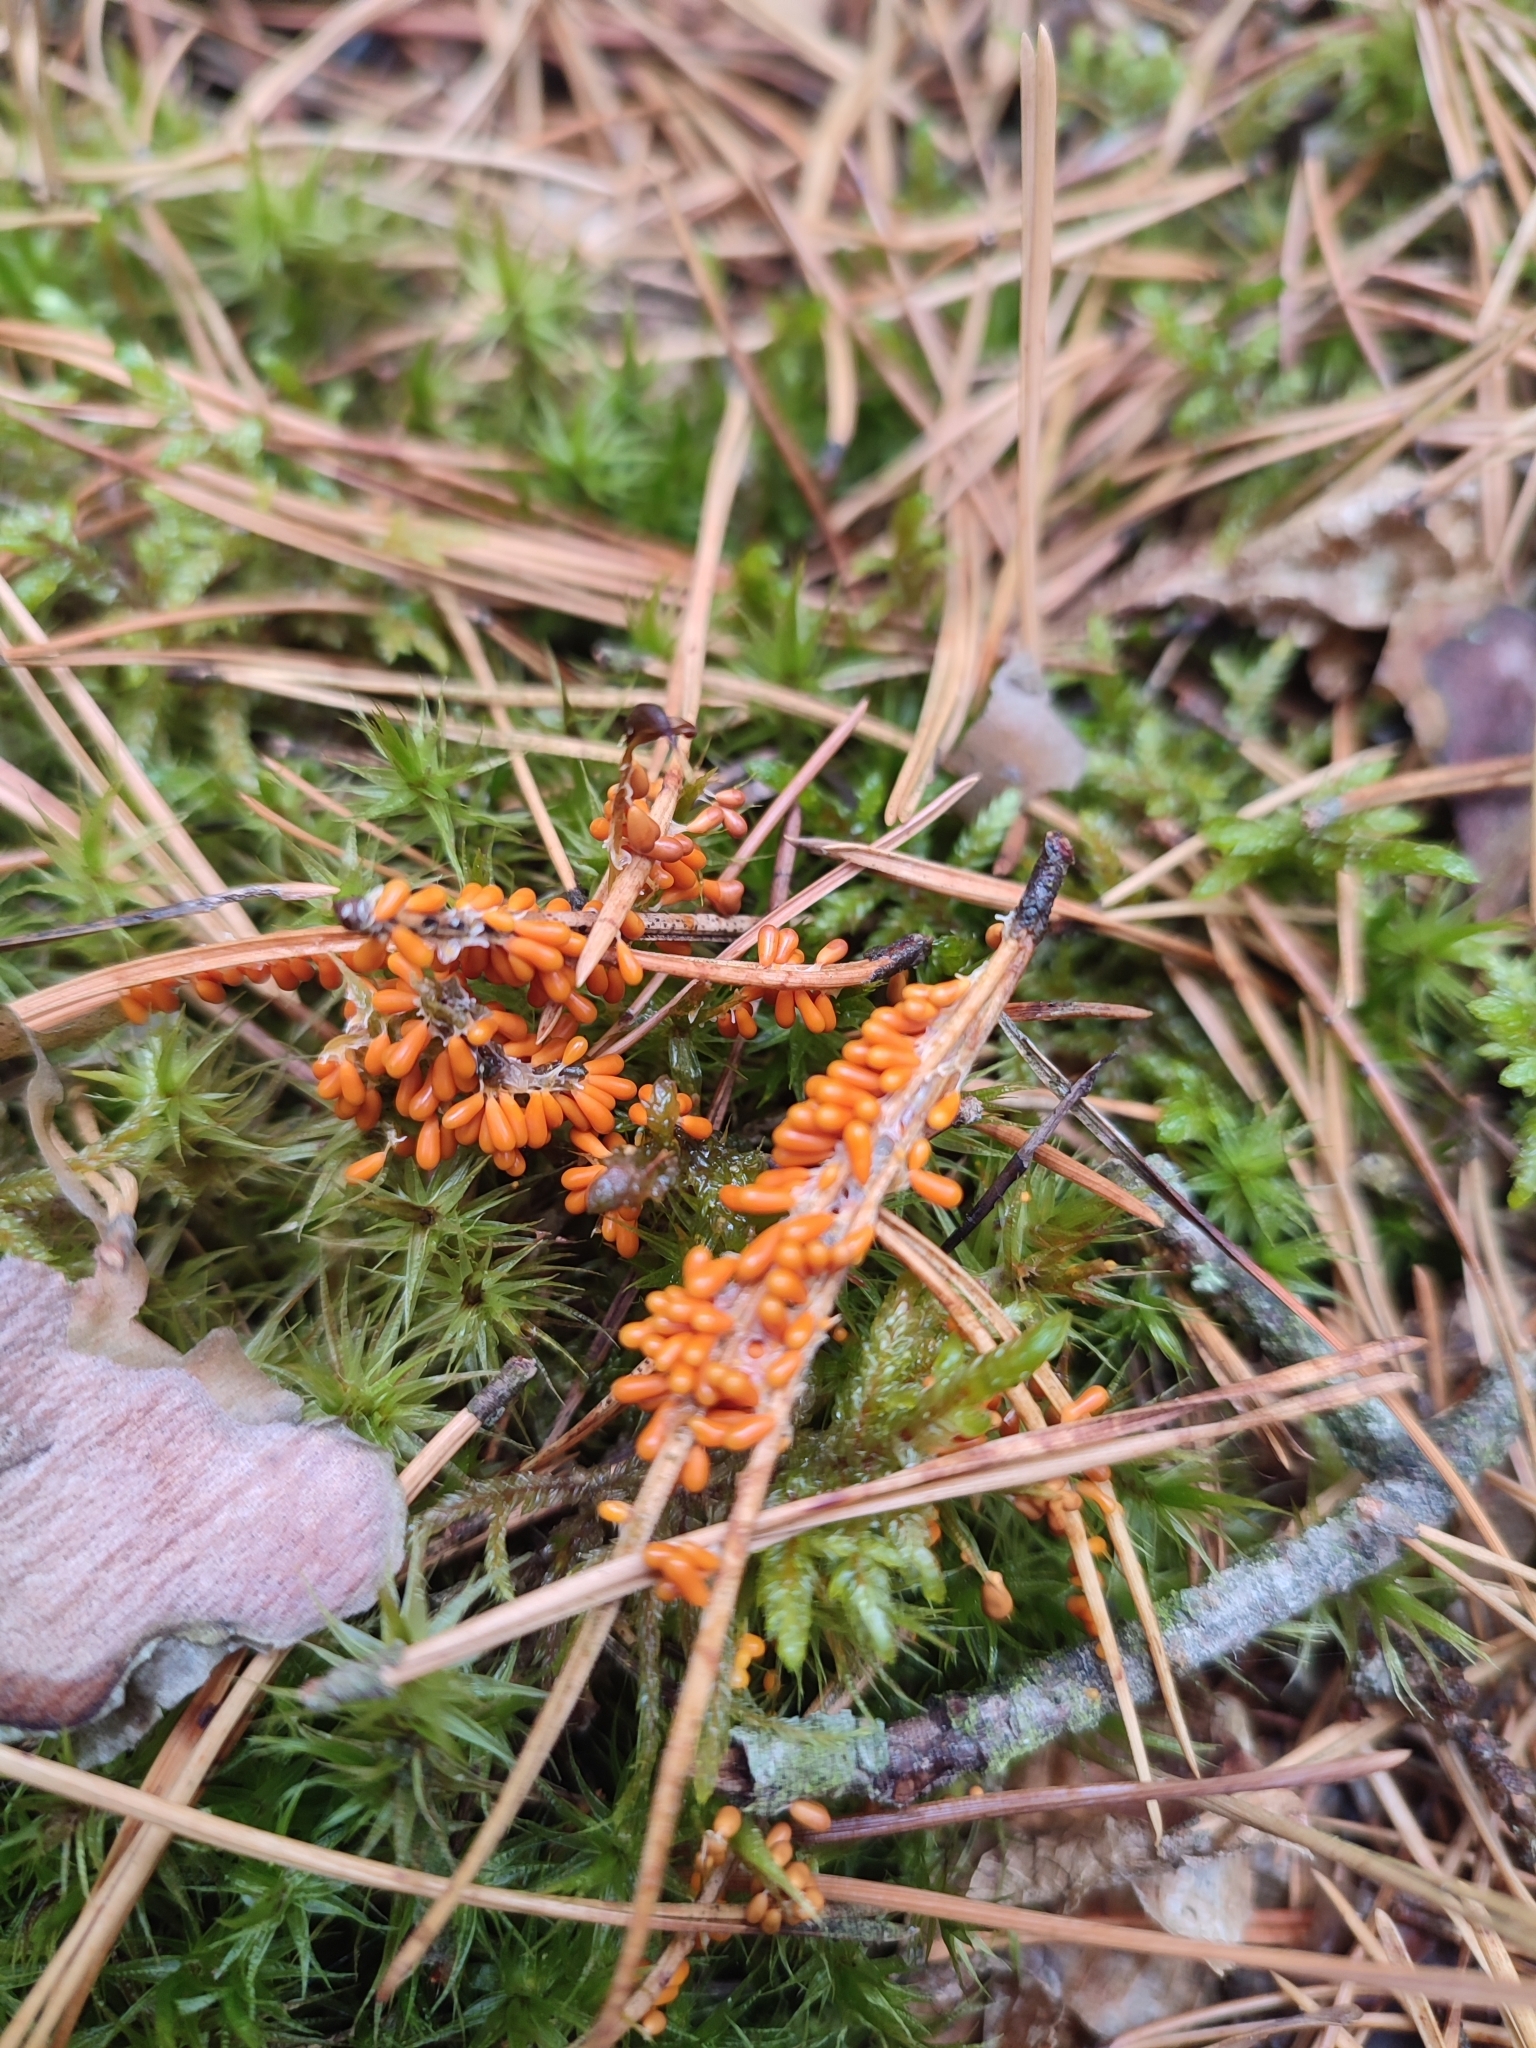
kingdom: Protozoa
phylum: Mycetozoa
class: Myxomycetes
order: Physarales
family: Physaraceae
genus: Leocarpus
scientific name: Leocarpus fragilis
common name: Insect-egg slime
